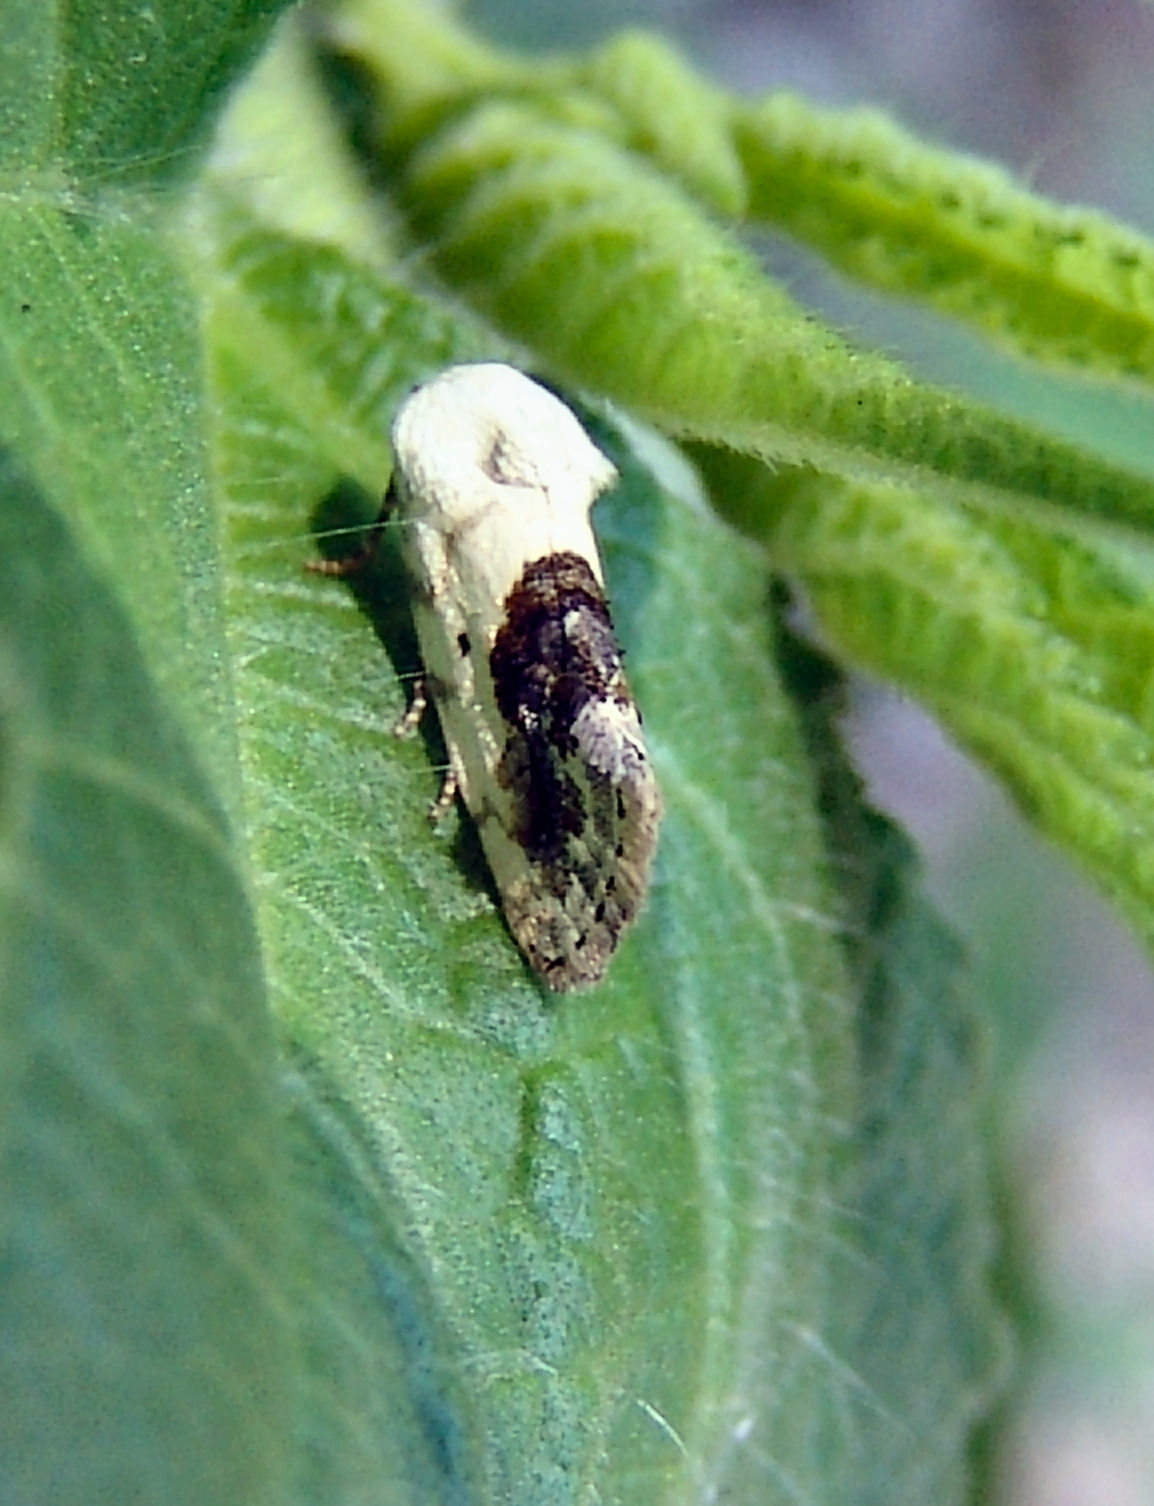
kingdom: Animalia
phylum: Arthropoda
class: Insecta
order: Lepidoptera
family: Noctuidae
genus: Acontia
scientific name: Acontia erastrioides
